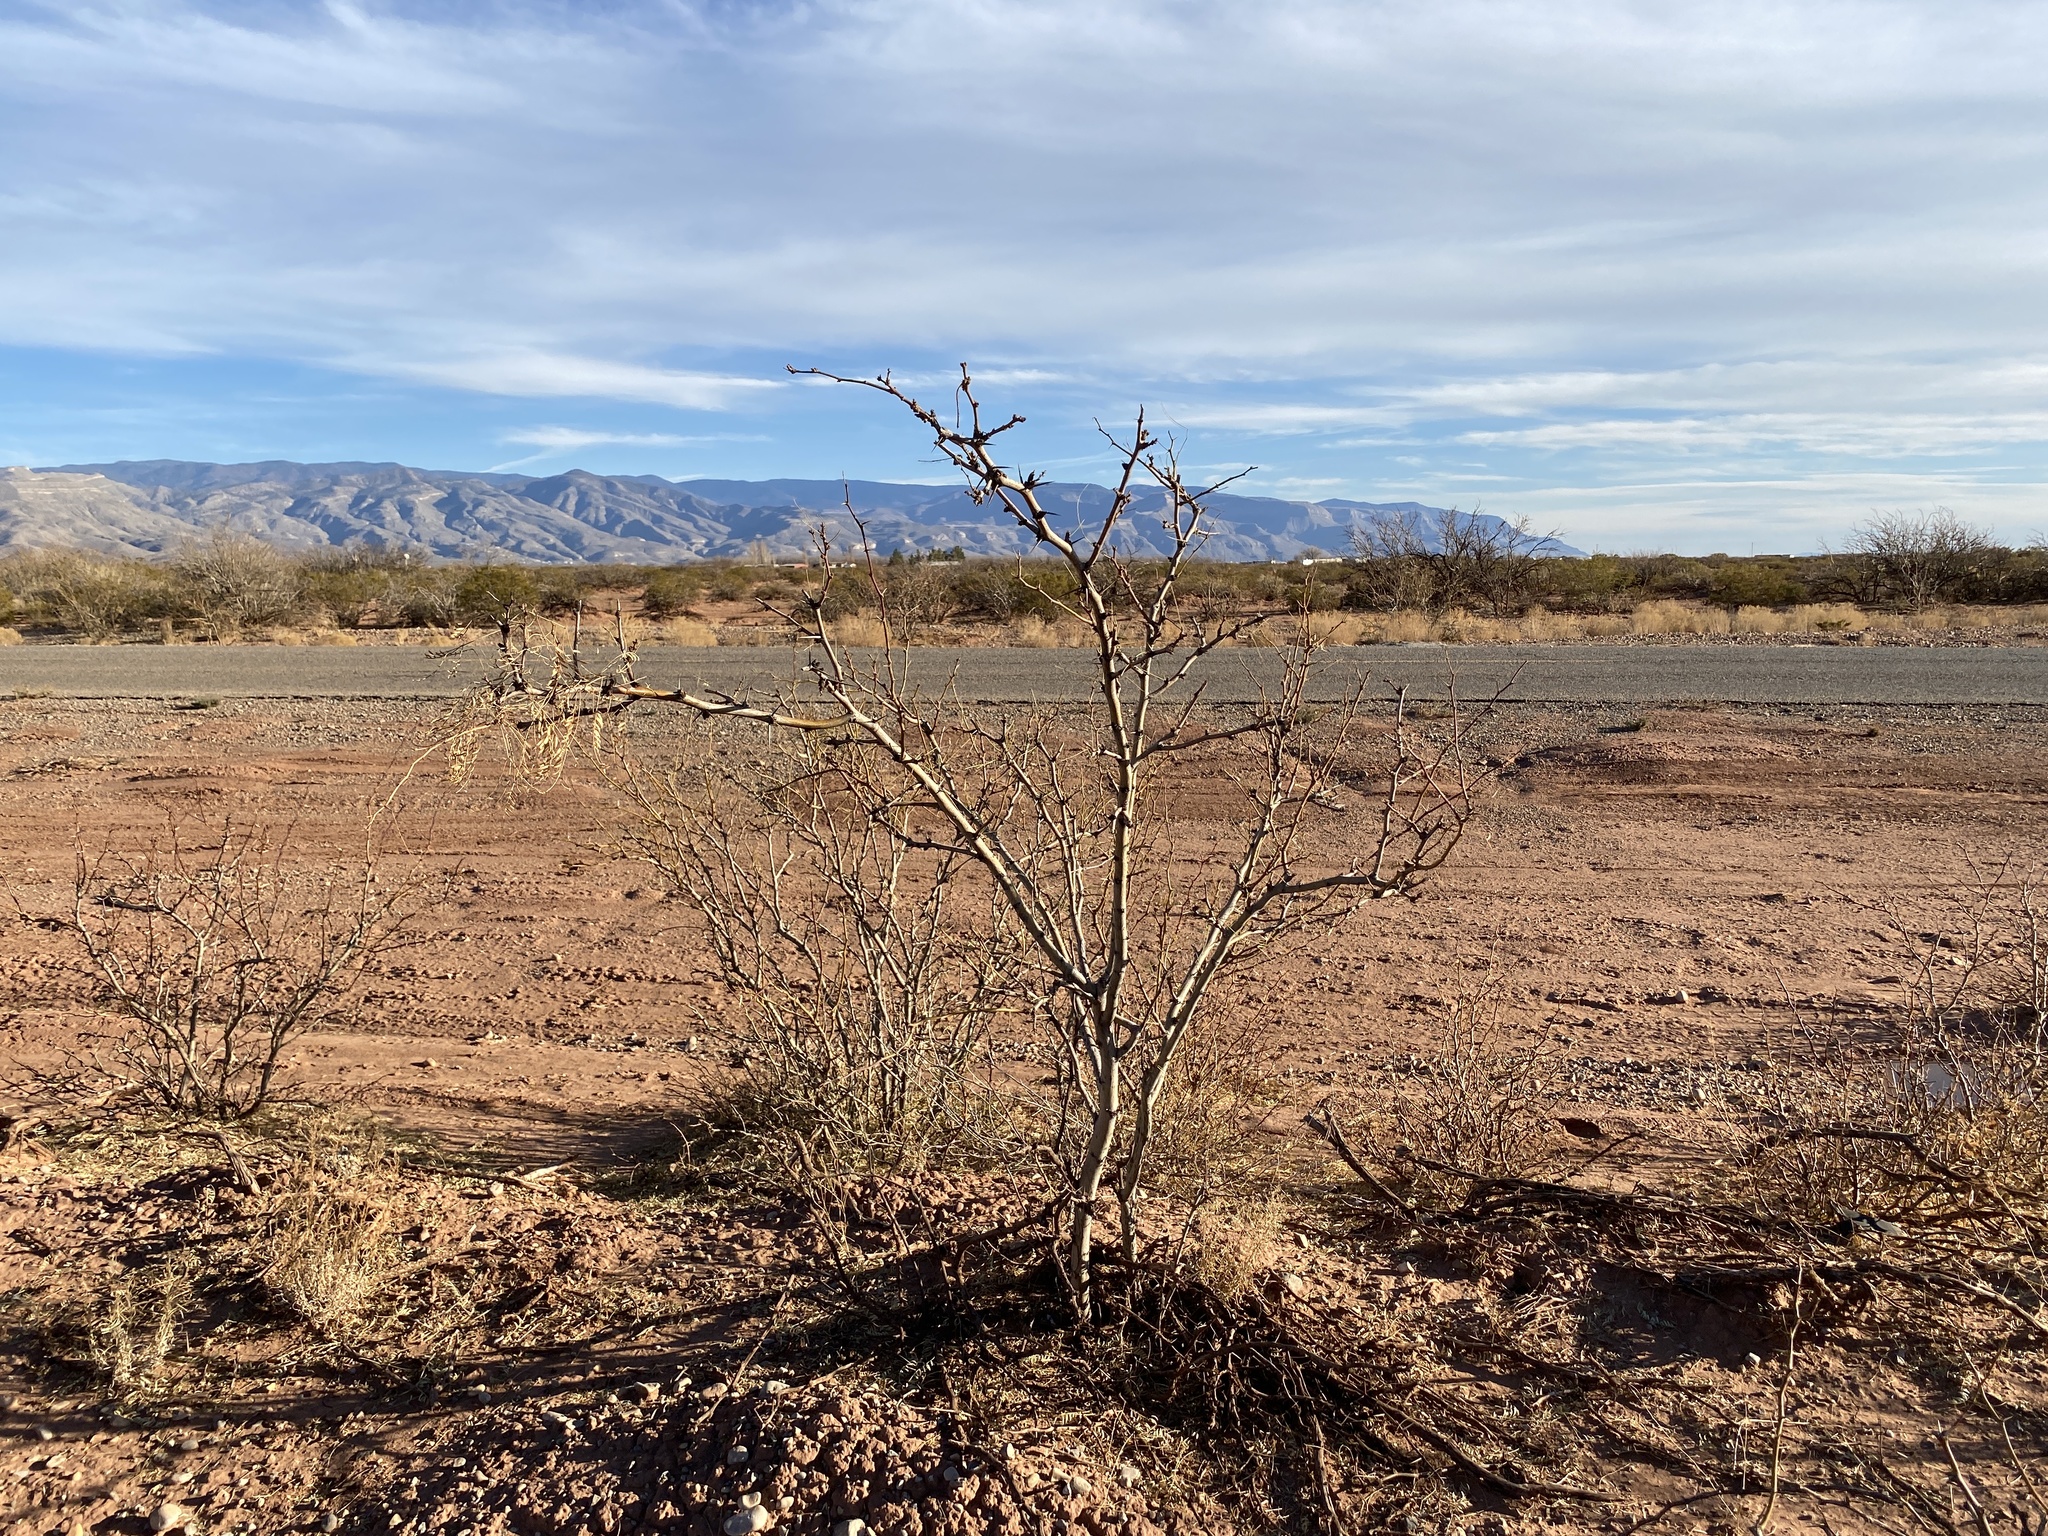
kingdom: Plantae
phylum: Tracheophyta
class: Magnoliopsida
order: Fabales
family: Fabaceae
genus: Prosopis
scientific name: Prosopis glandulosa
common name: Honey mesquite
